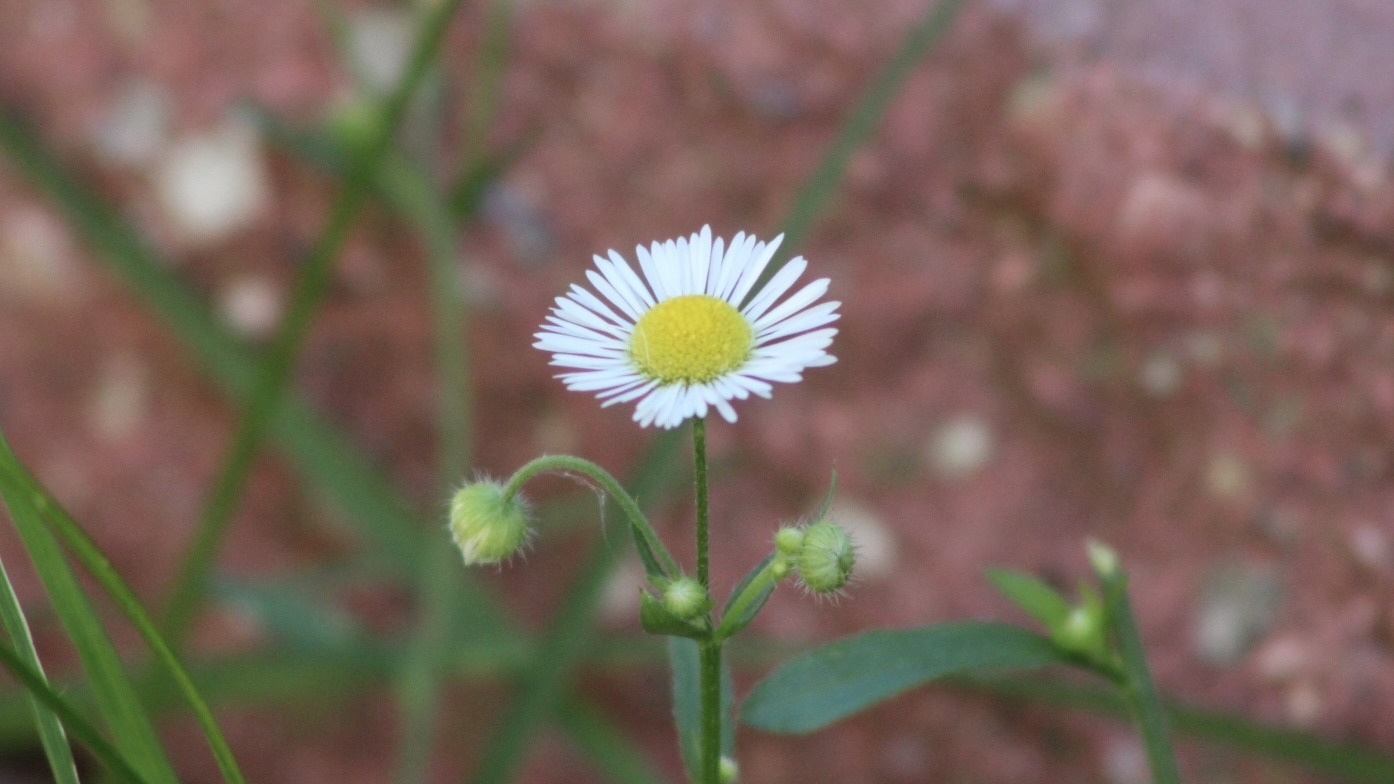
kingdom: Plantae
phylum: Tracheophyta
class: Magnoliopsida
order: Asterales
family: Asteraceae
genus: Erigeron
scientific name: Erigeron strigosus
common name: Common eastern fleabane
